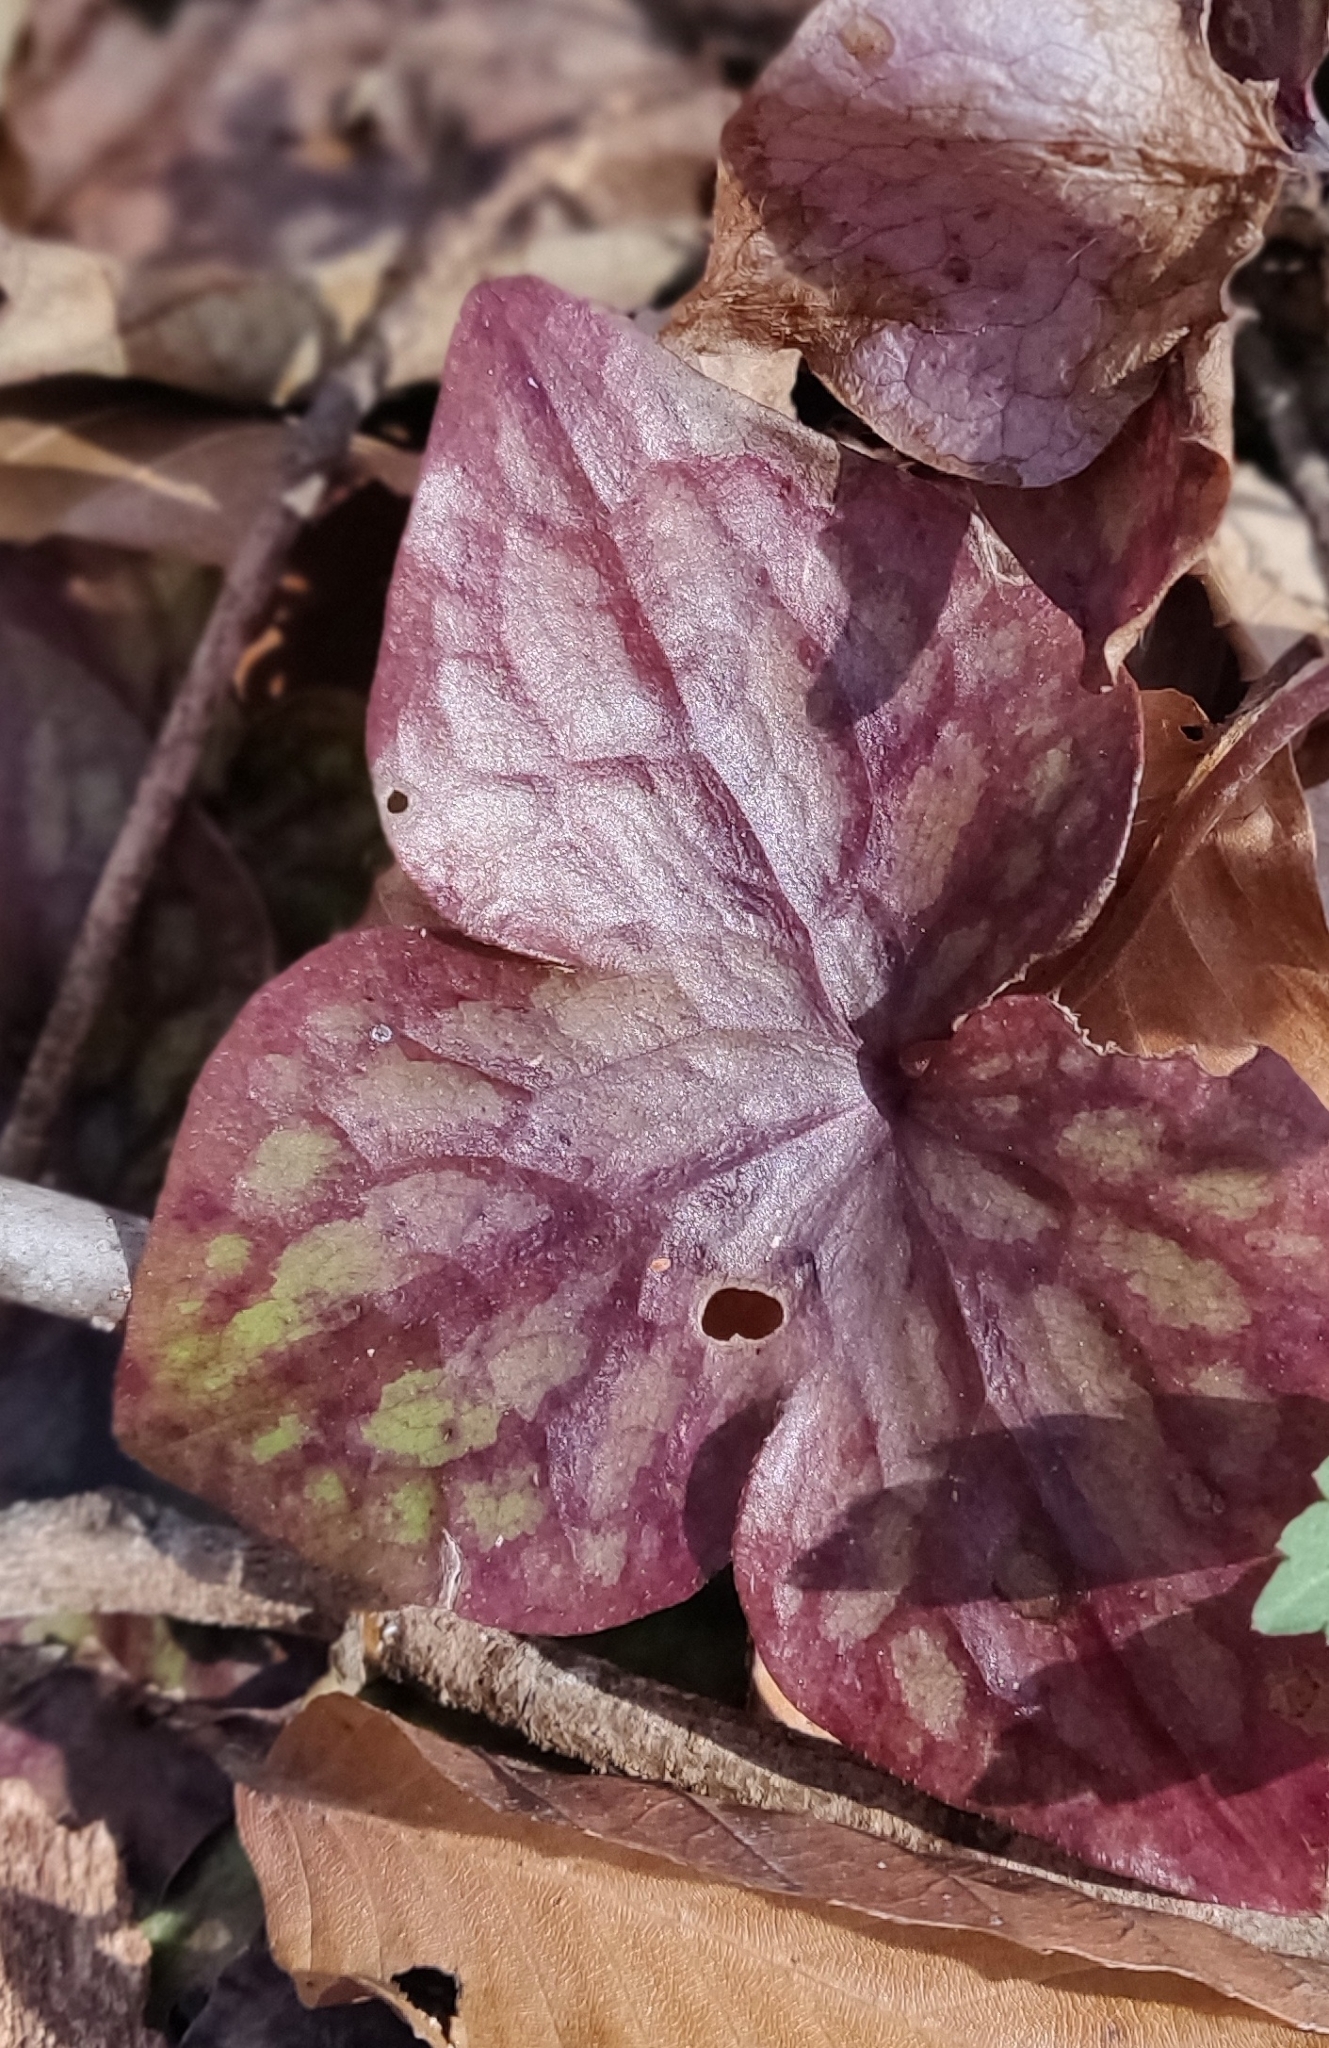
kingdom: Plantae
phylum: Tracheophyta
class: Magnoliopsida
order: Ranunculales
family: Ranunculaceae
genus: Hepatica
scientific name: Hepatica acutiloba
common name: Sharp-lobed hepatica
